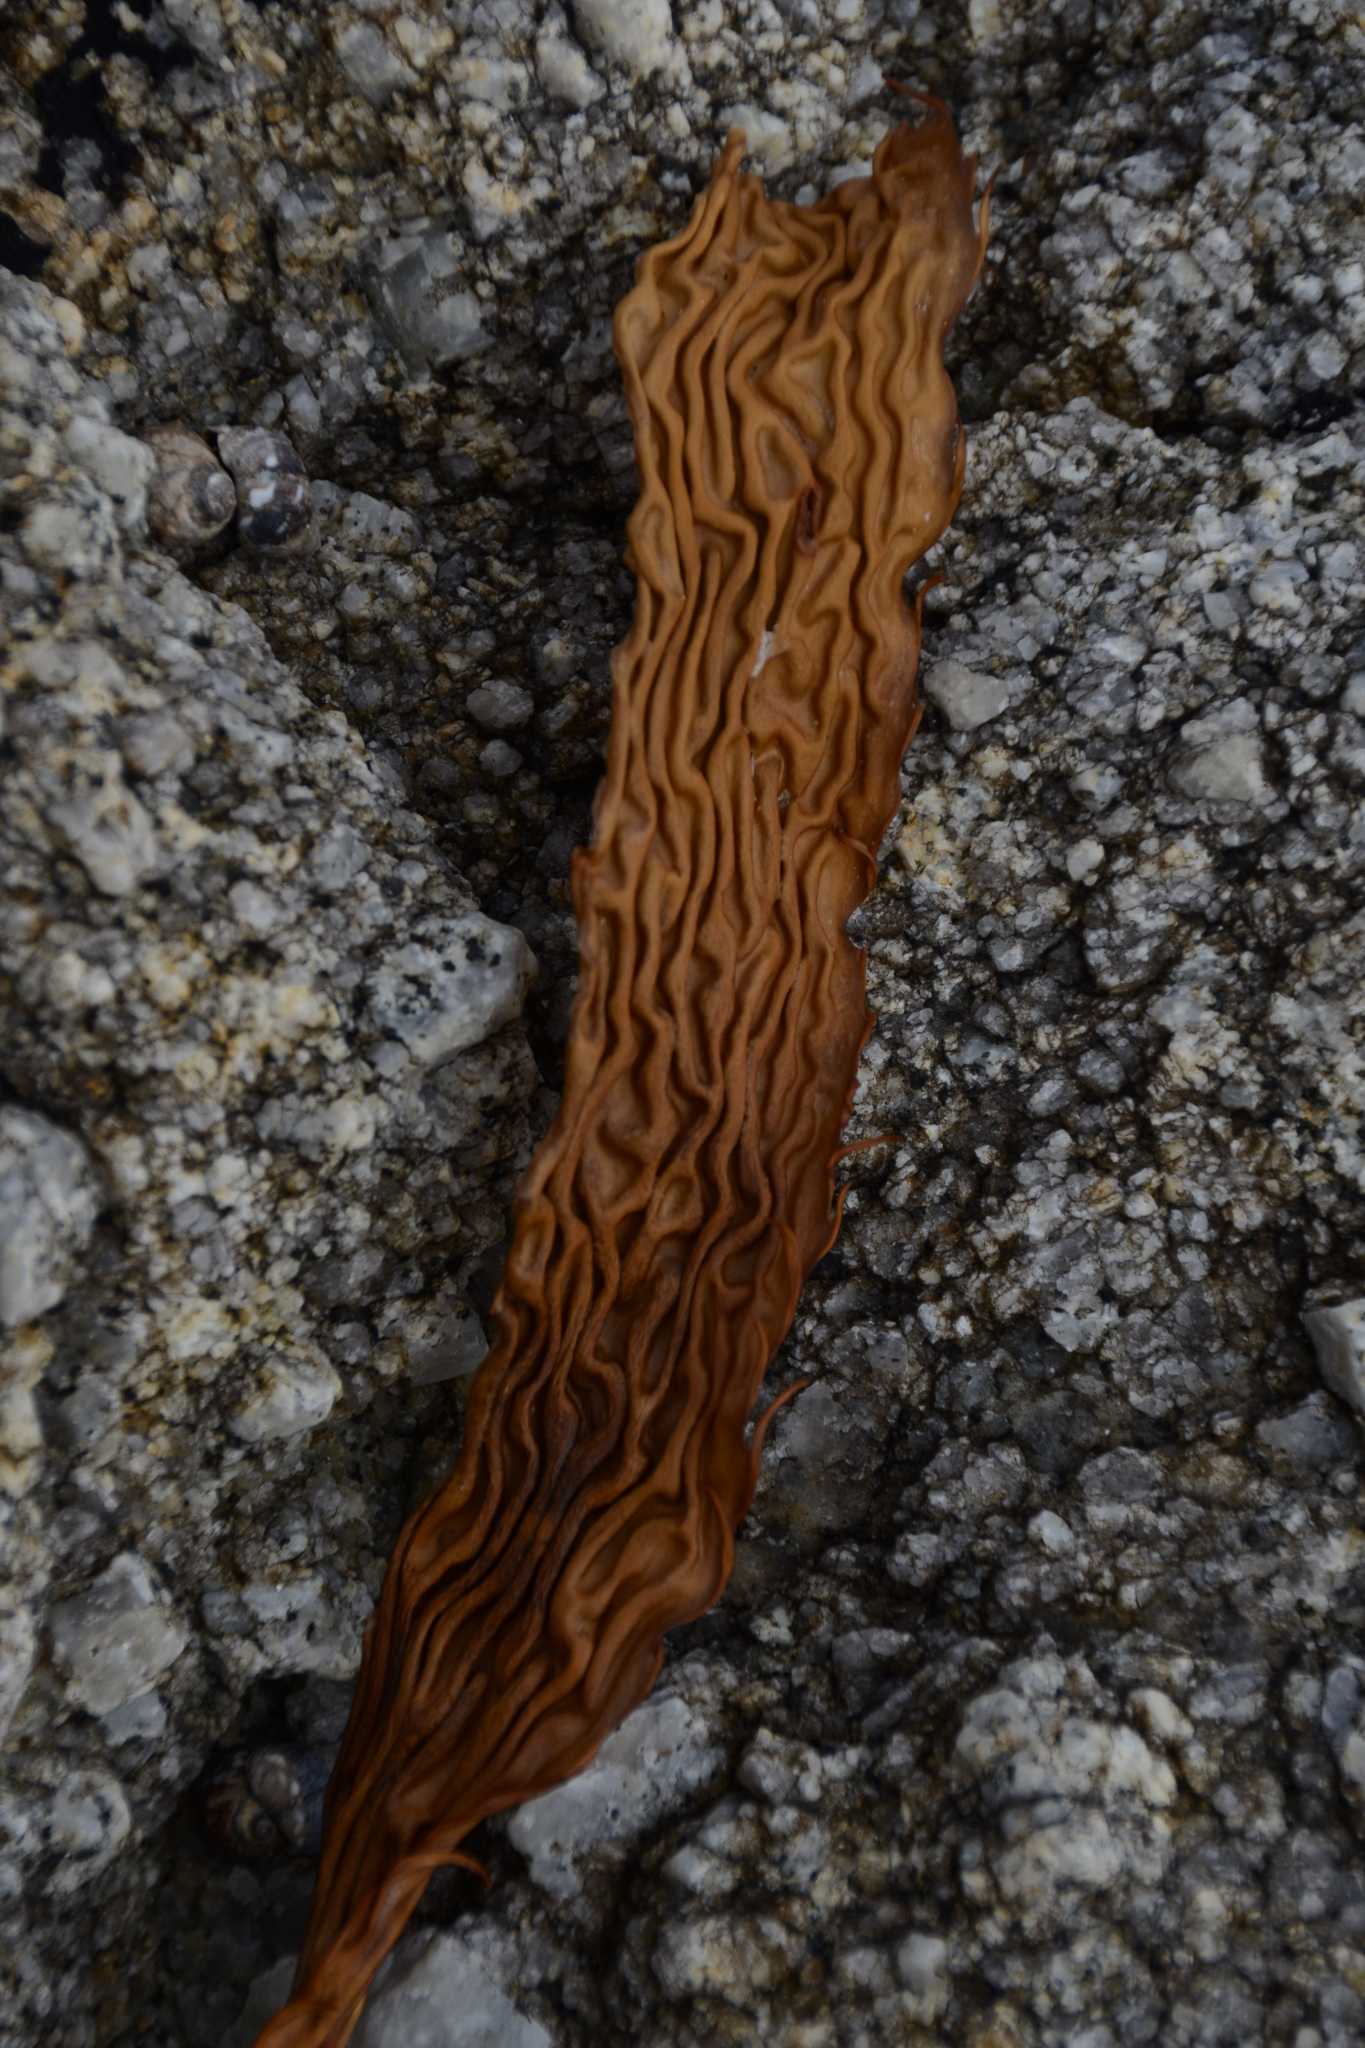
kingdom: Chromista
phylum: Ochrophyta
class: Phaeophyceae
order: Laminariales
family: Laminariaceae
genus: Macrocystis
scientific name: Macrocystis pyrifera
